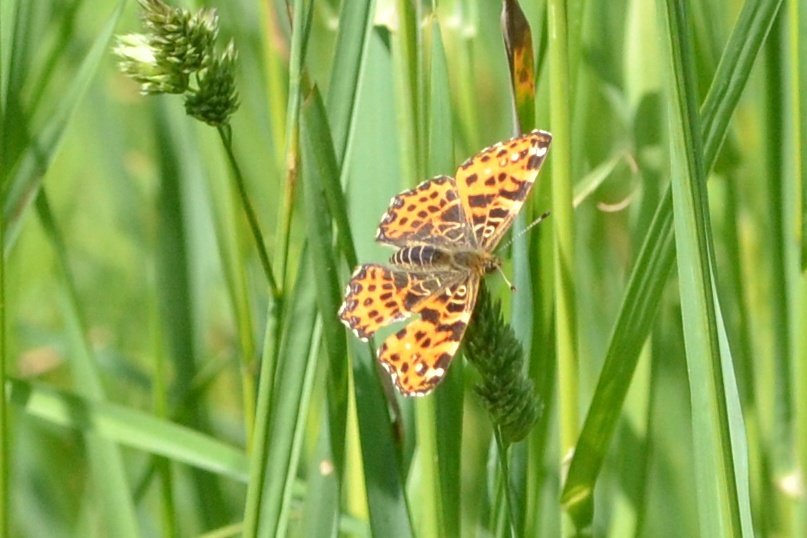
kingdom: Animalia
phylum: Arthropoda
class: Insecta
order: Lepidoptera
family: Nymphalidae
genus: Araschnia
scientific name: Araschnia levana
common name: Map butterfly
